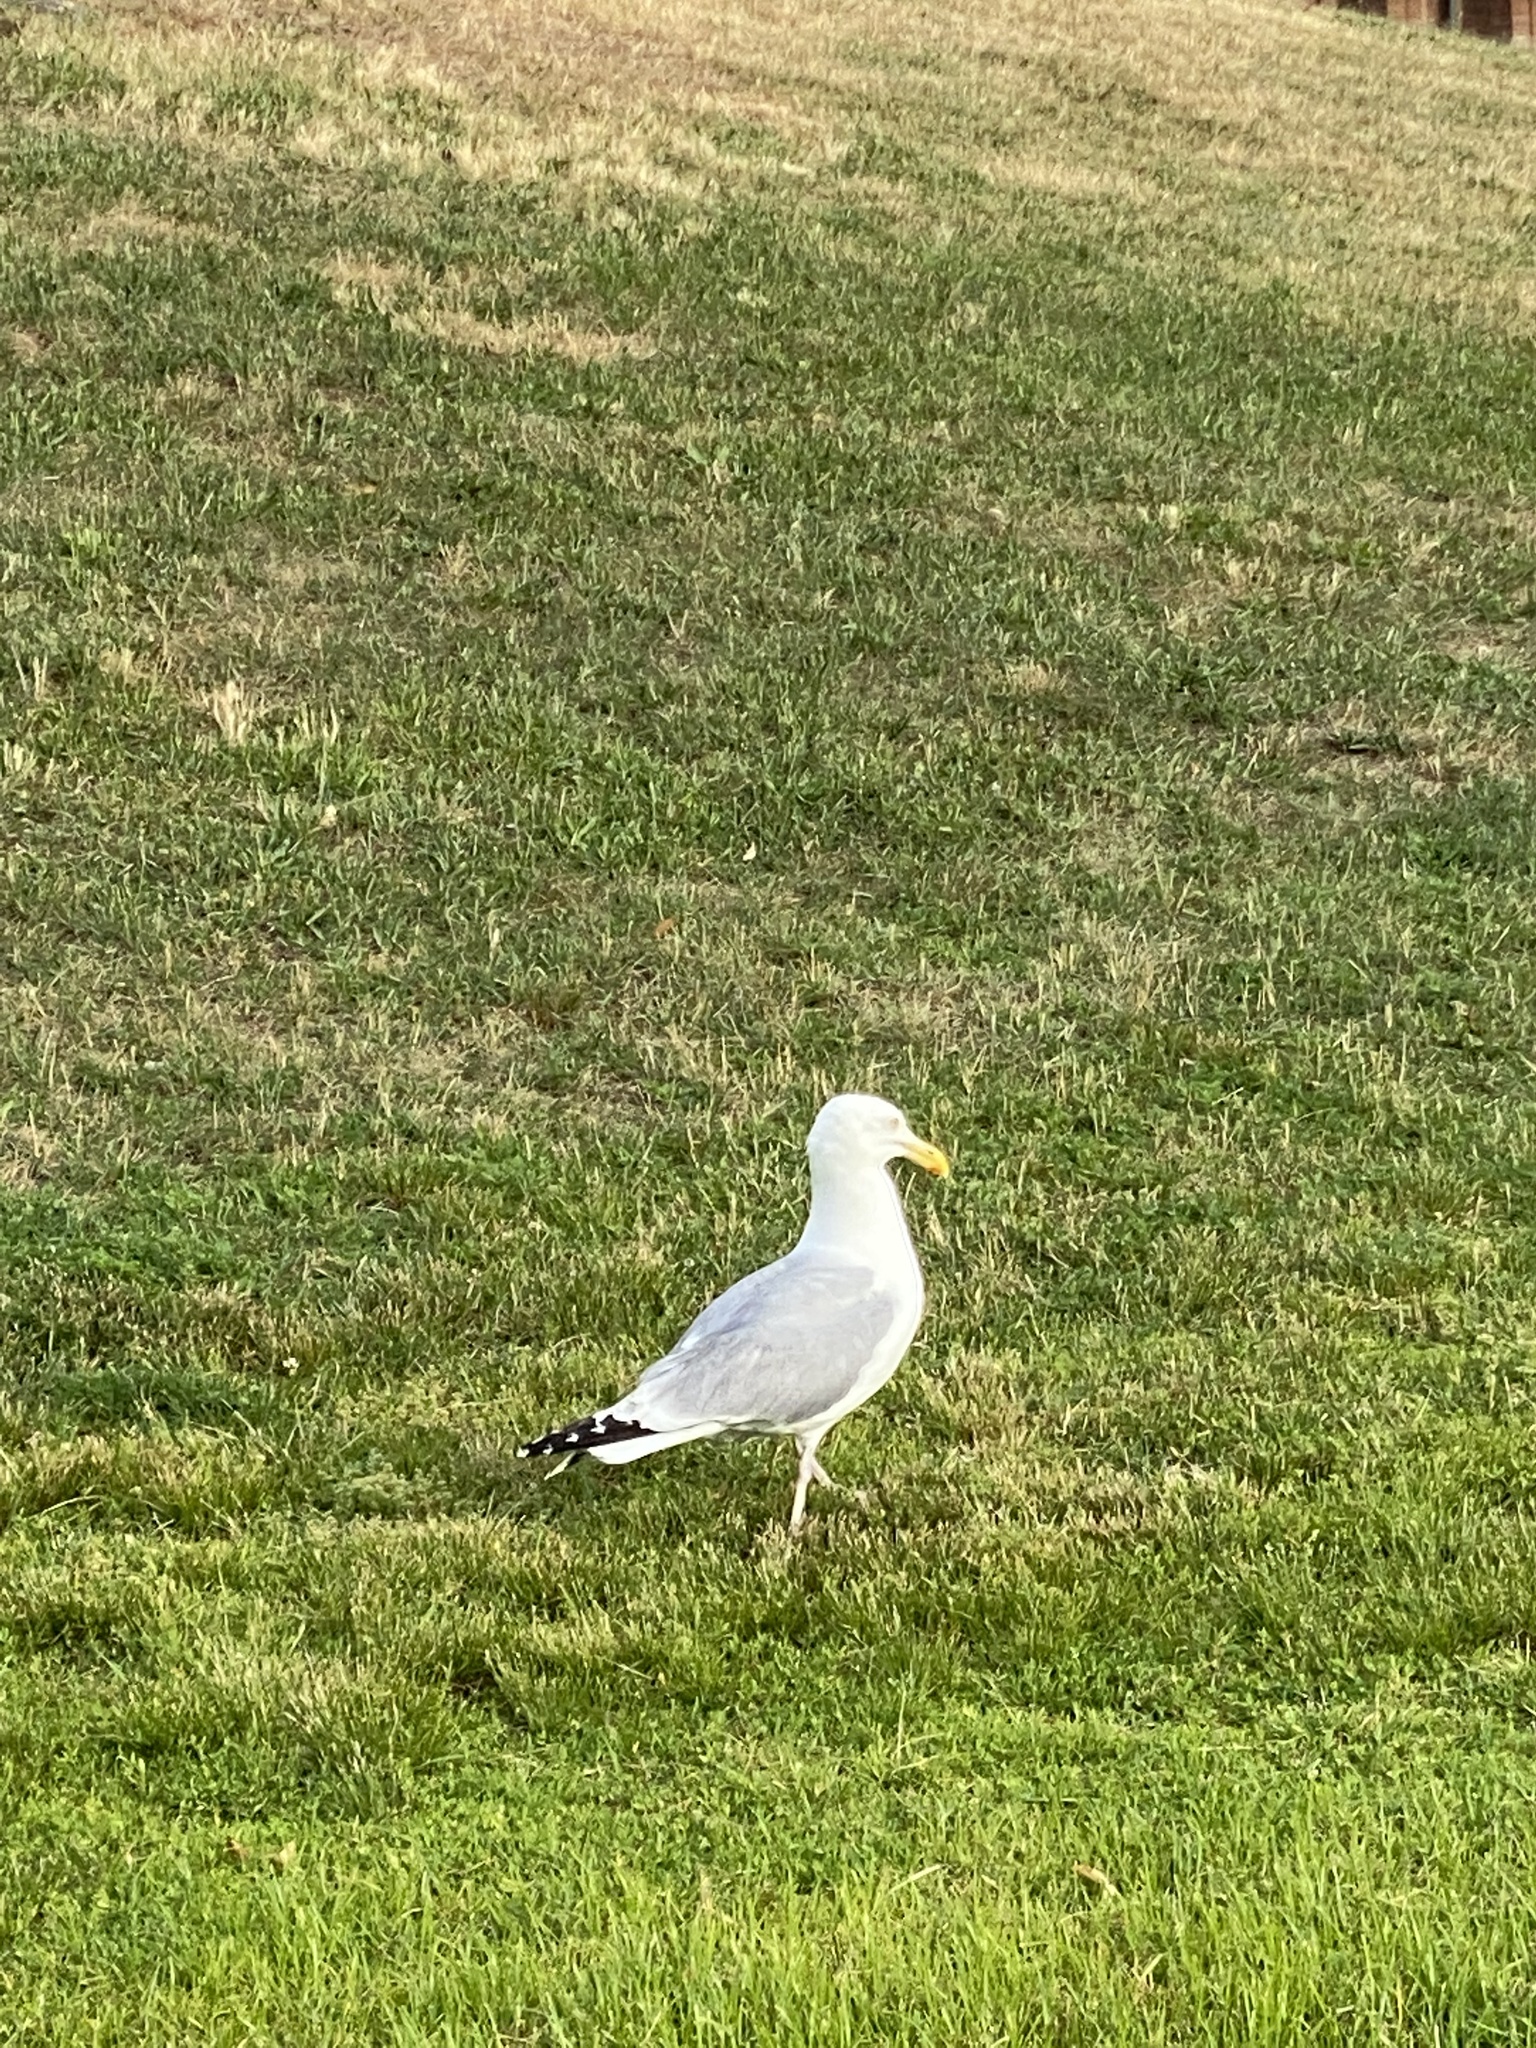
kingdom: Animalia
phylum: Chordata
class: Aves
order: Charadriiformes
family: Laridae
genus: Larus
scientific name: Larus argentatus
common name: Herring gull
